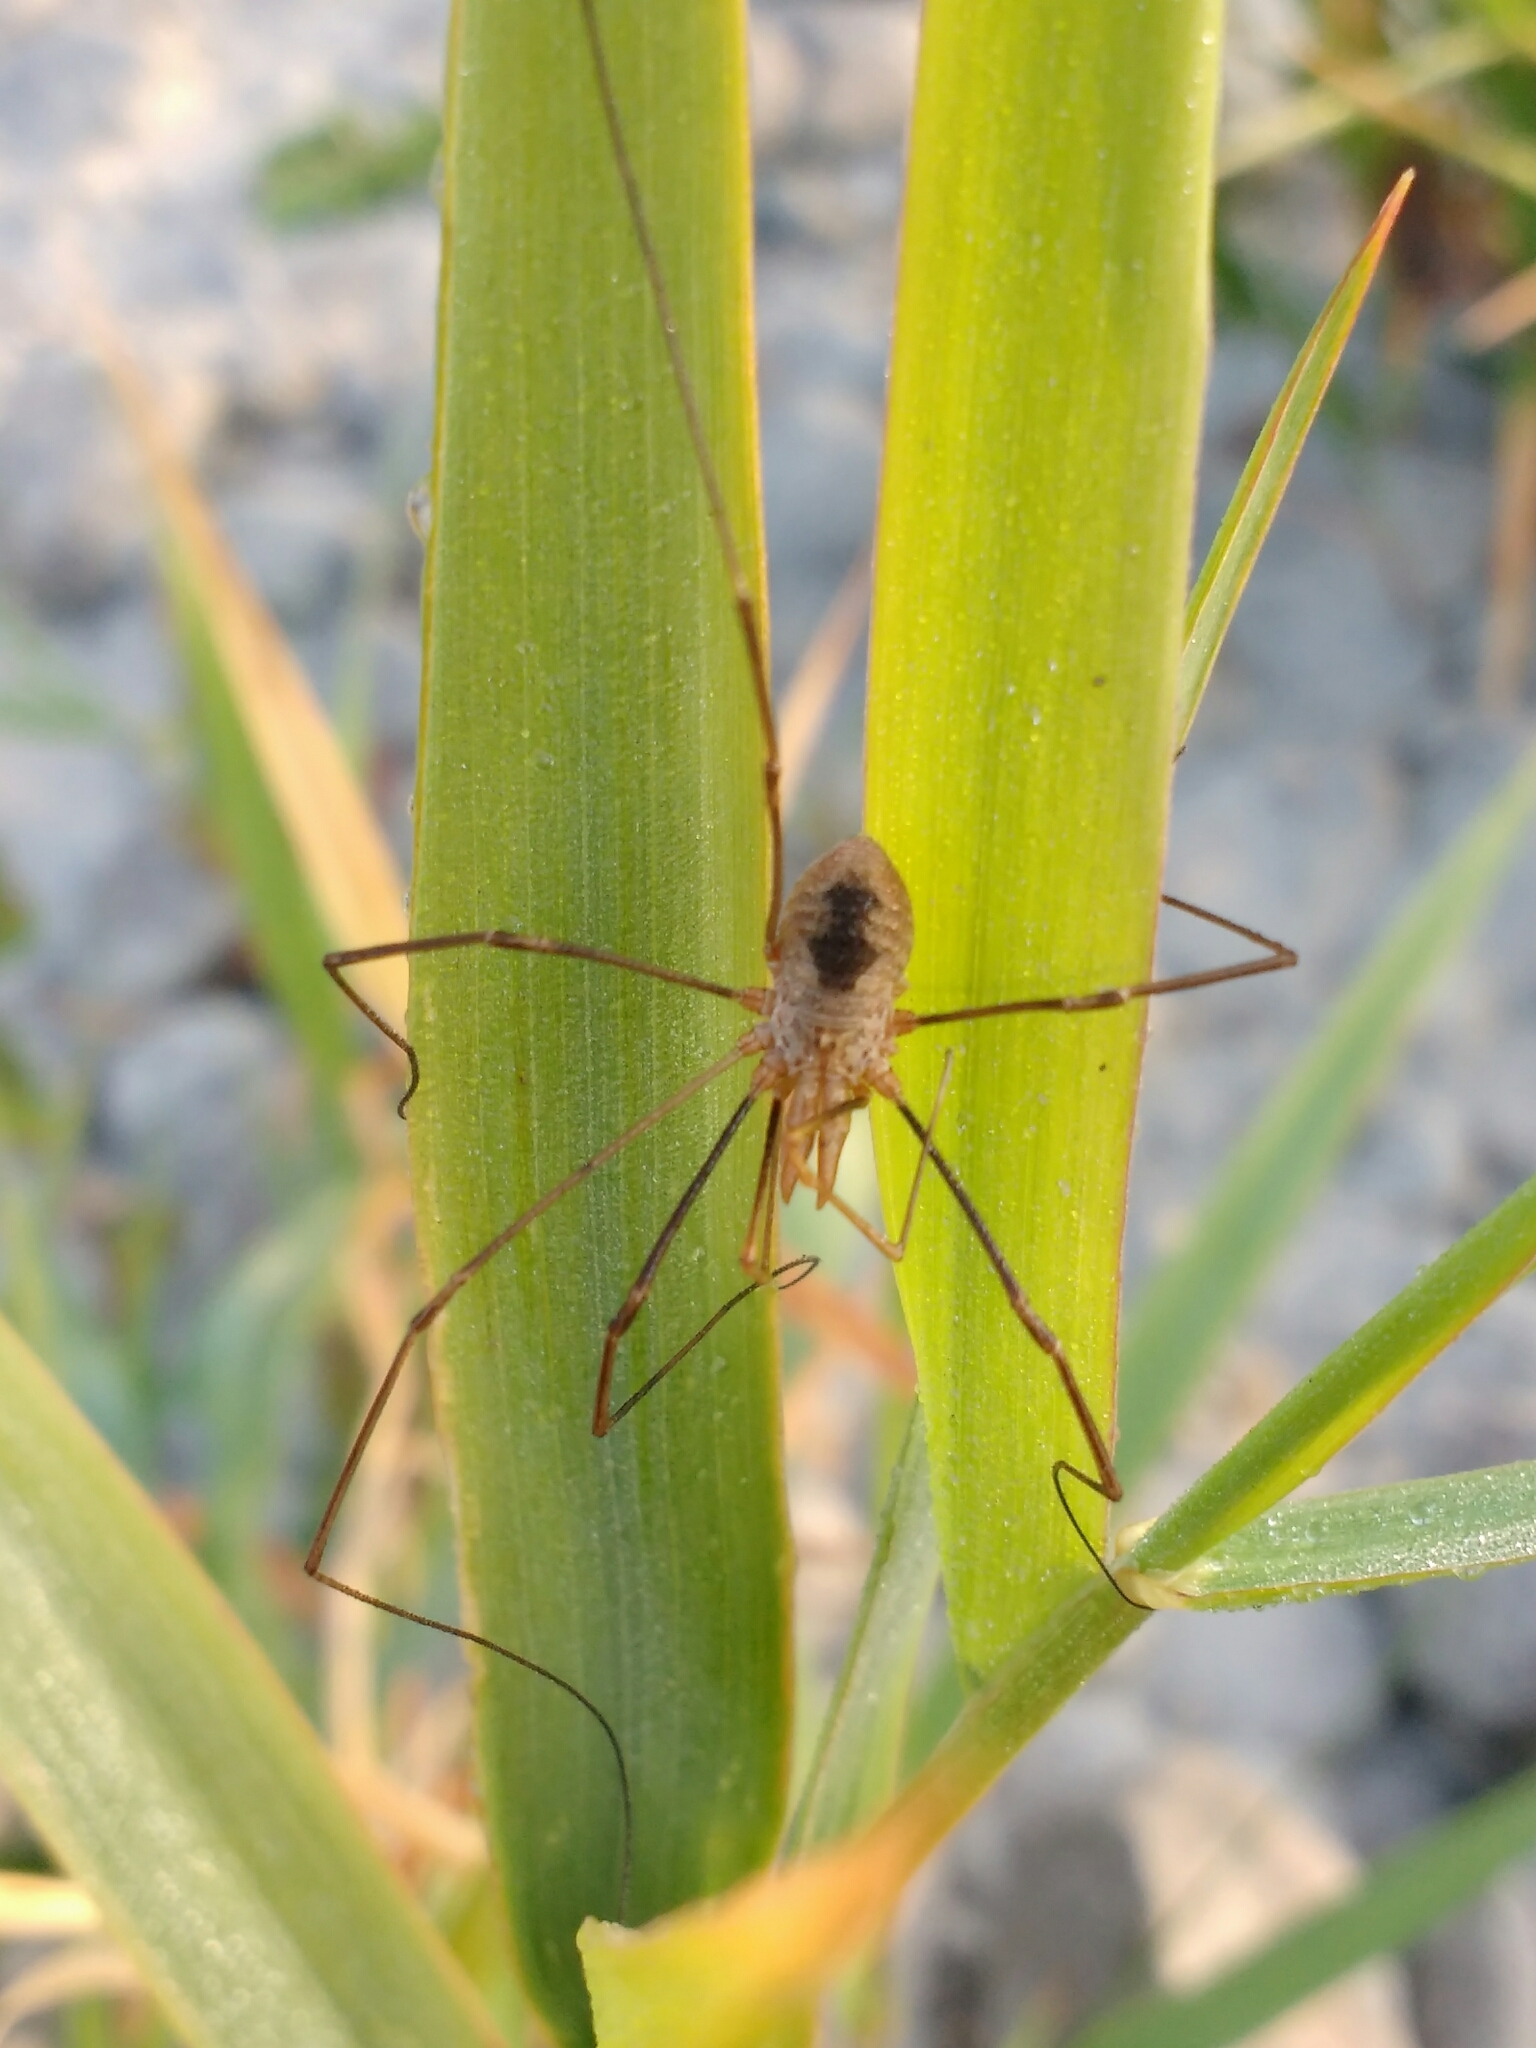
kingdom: Animalia
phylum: Arthropoda
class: Arachnida
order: Opiliones
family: Phalangiidae
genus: Phalangium
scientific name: Phalangium opilio
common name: Daddy longleg
